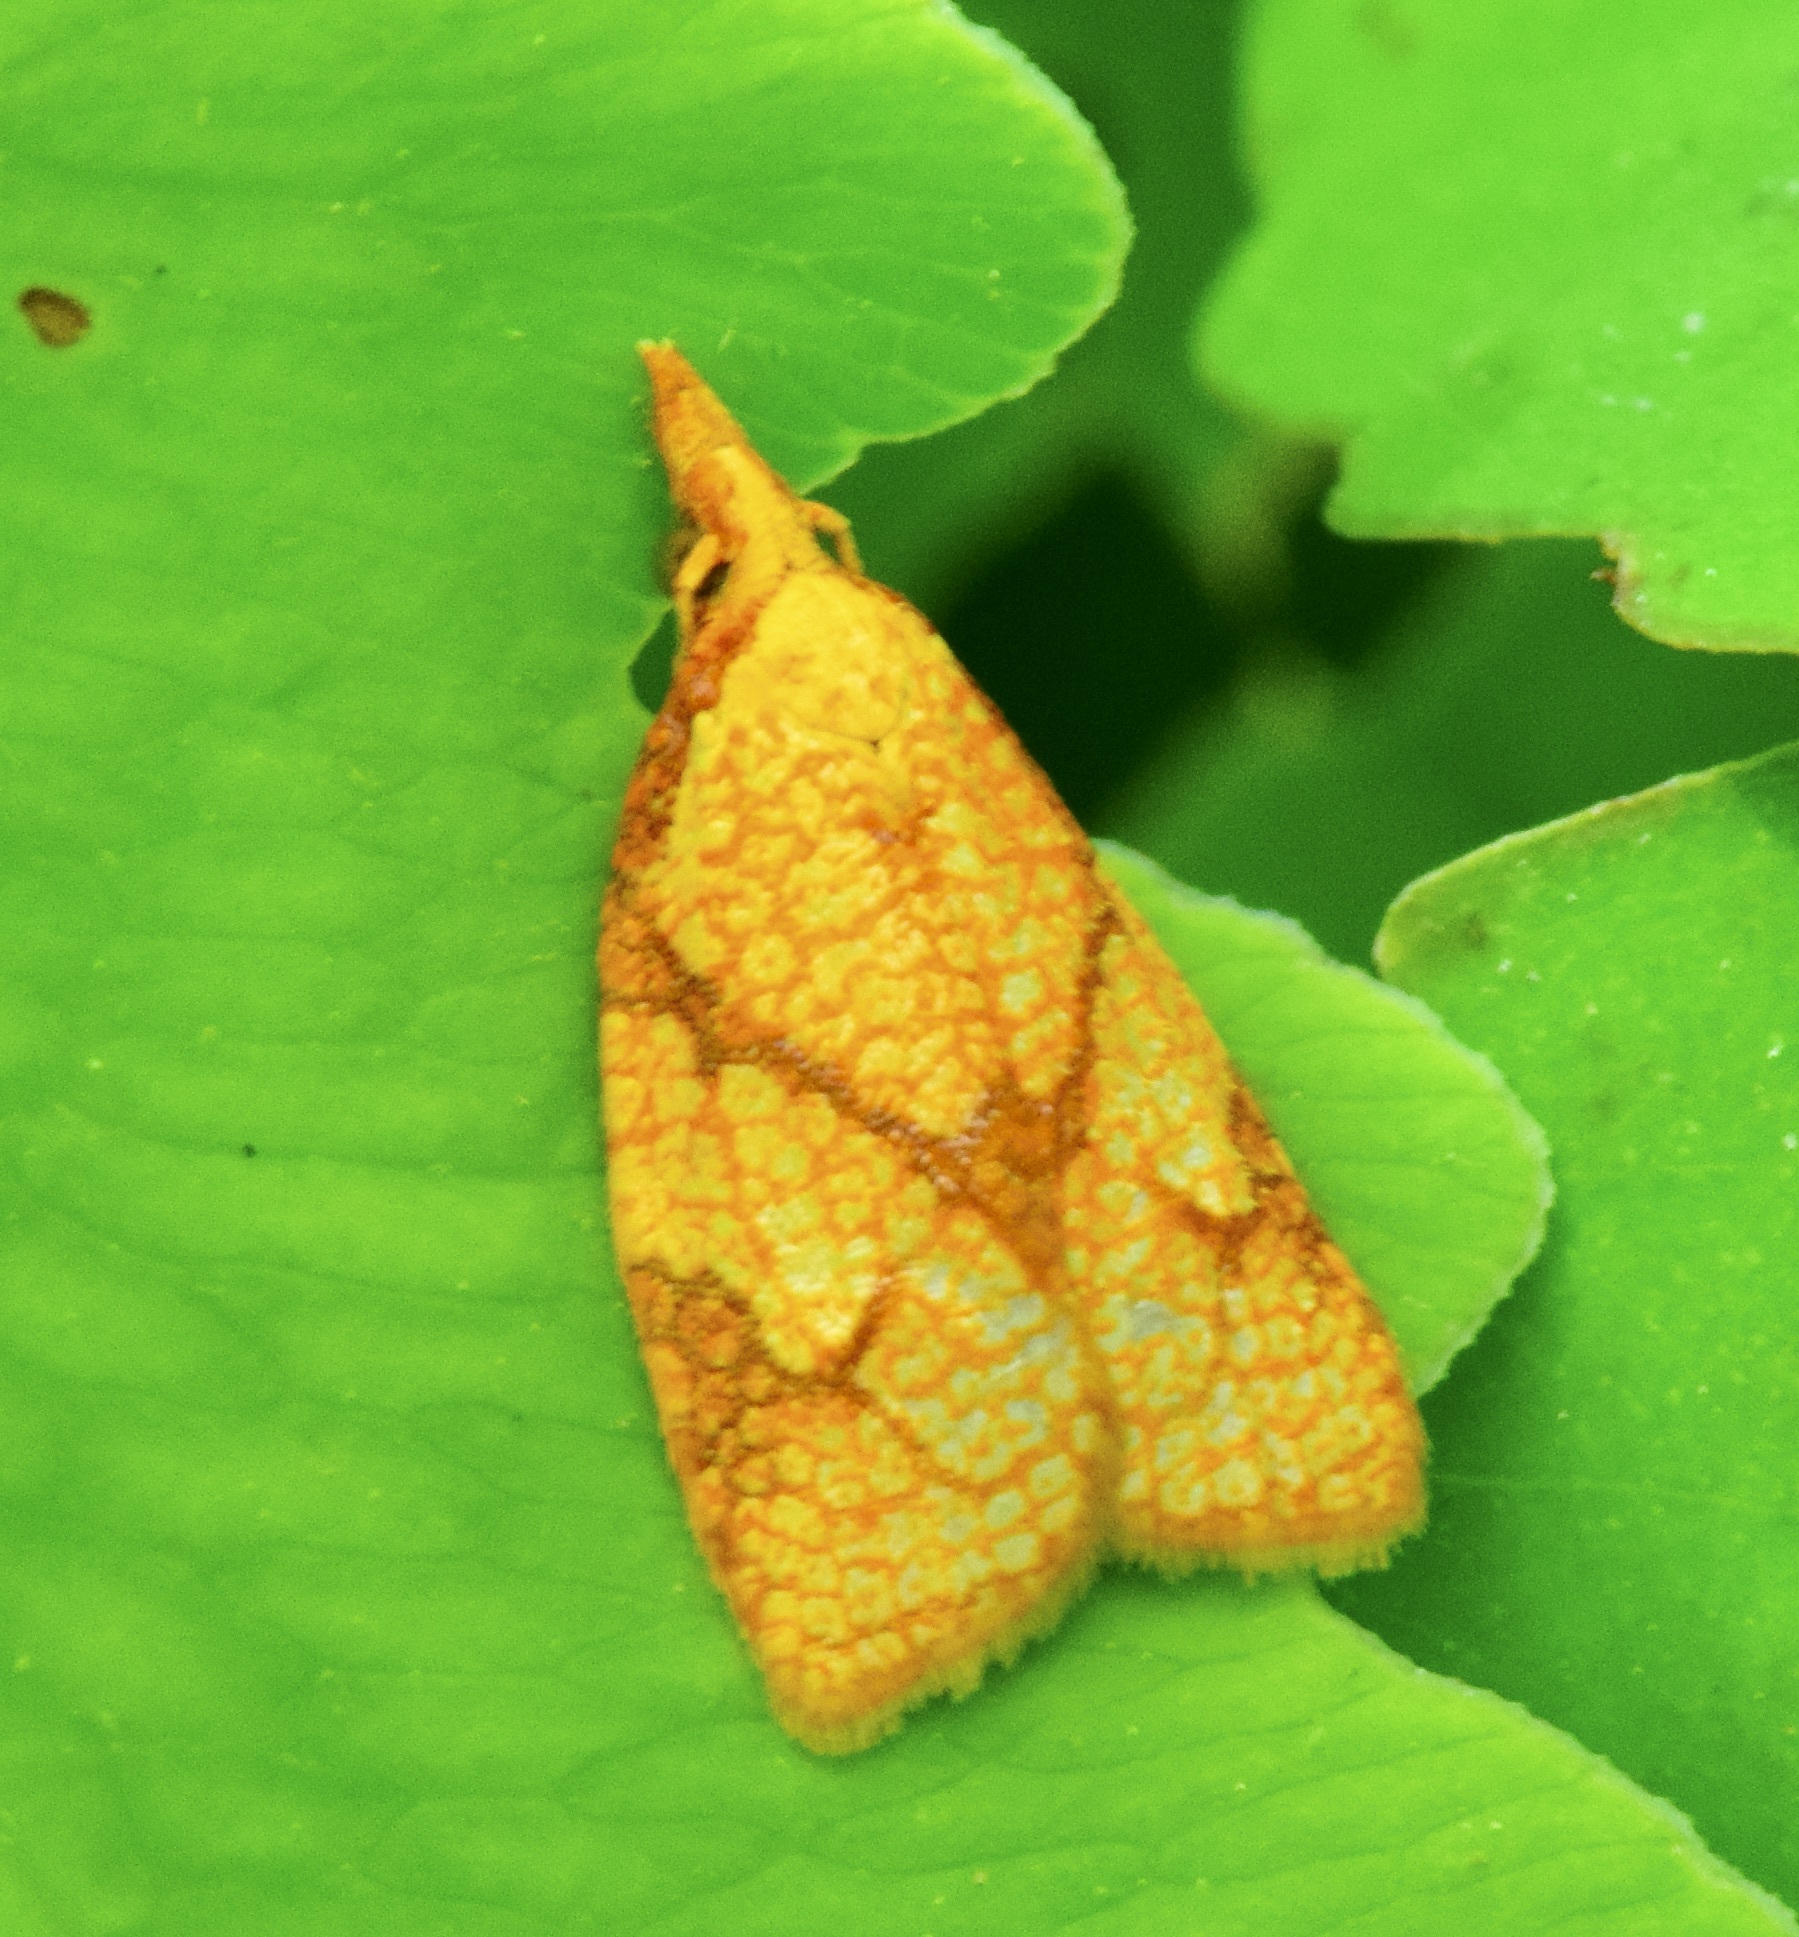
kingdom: Animalia
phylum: Arthropoda
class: Insecta
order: Lepidoptera
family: Tortricidae
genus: Cenopis
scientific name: Cenopis reticulatana
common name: Reticulated fruitworm moth
